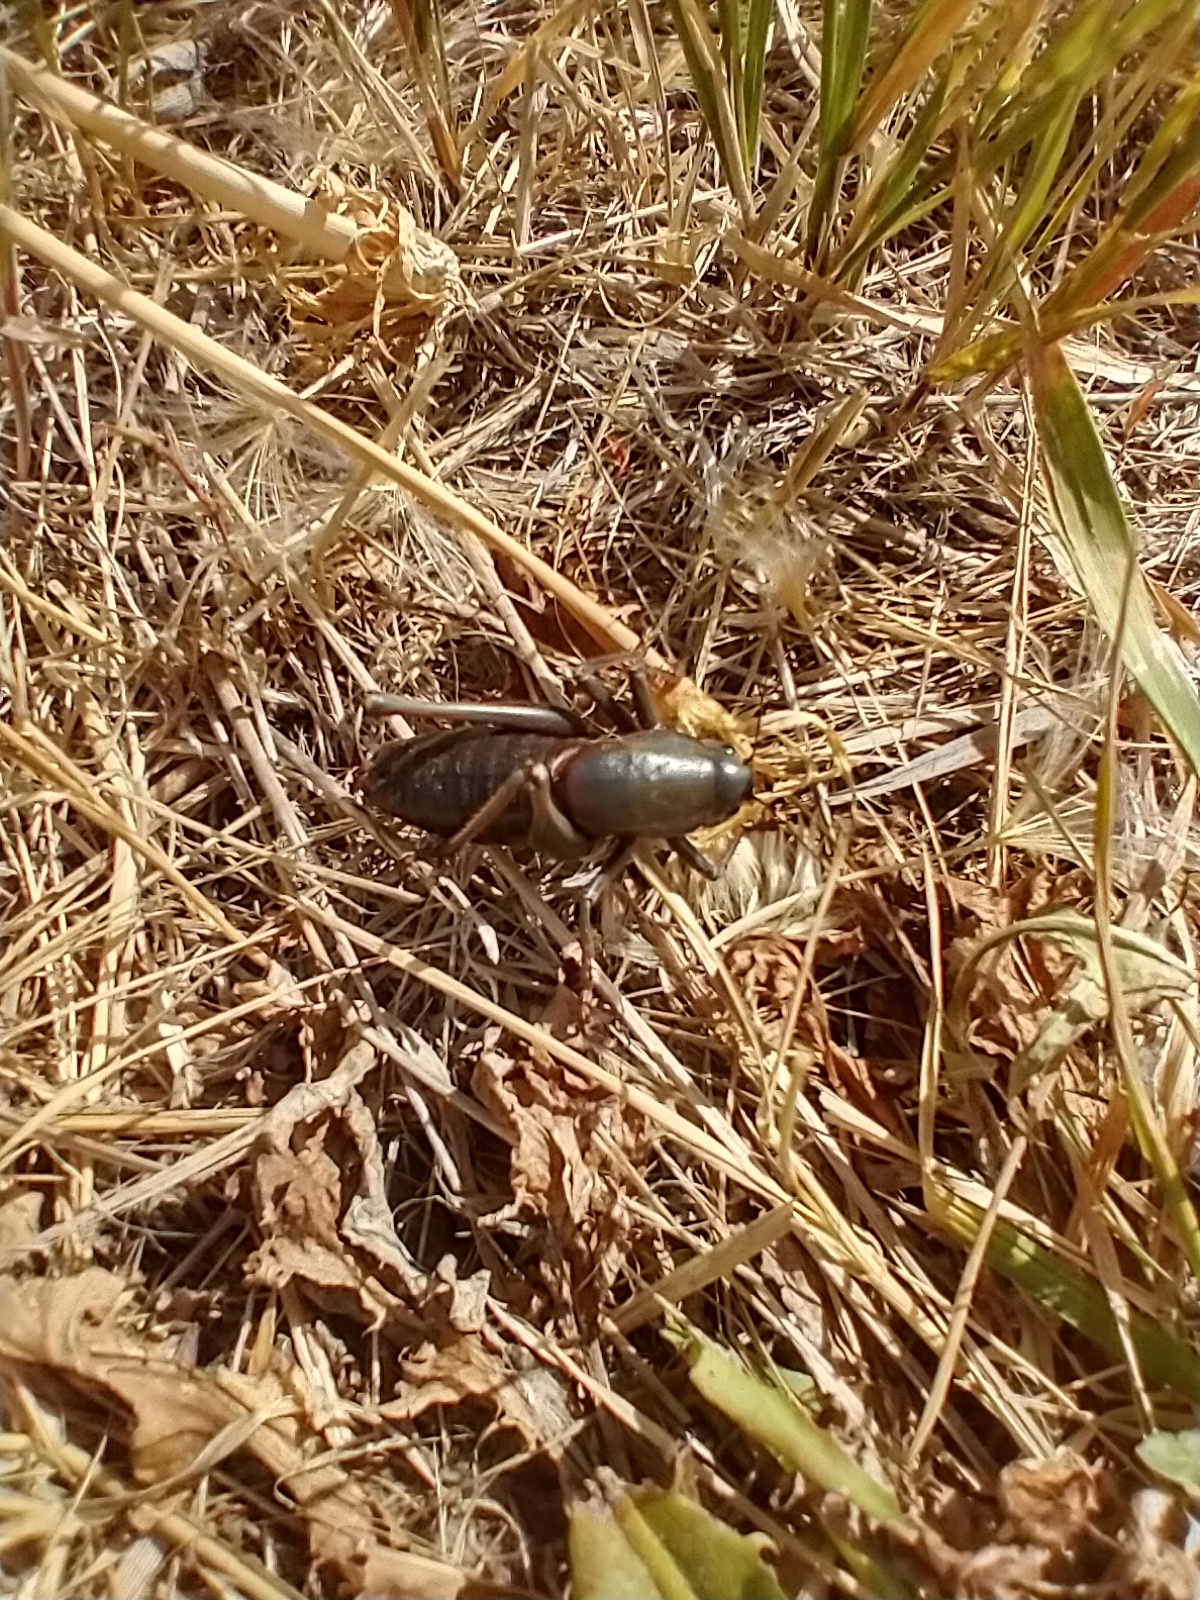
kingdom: Animalia
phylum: Arthropoda
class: Insecta
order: Orthoptera
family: Tettigoniidae
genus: Anabrus
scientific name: Anabrus cerciata
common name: Big-tooth anabrus
